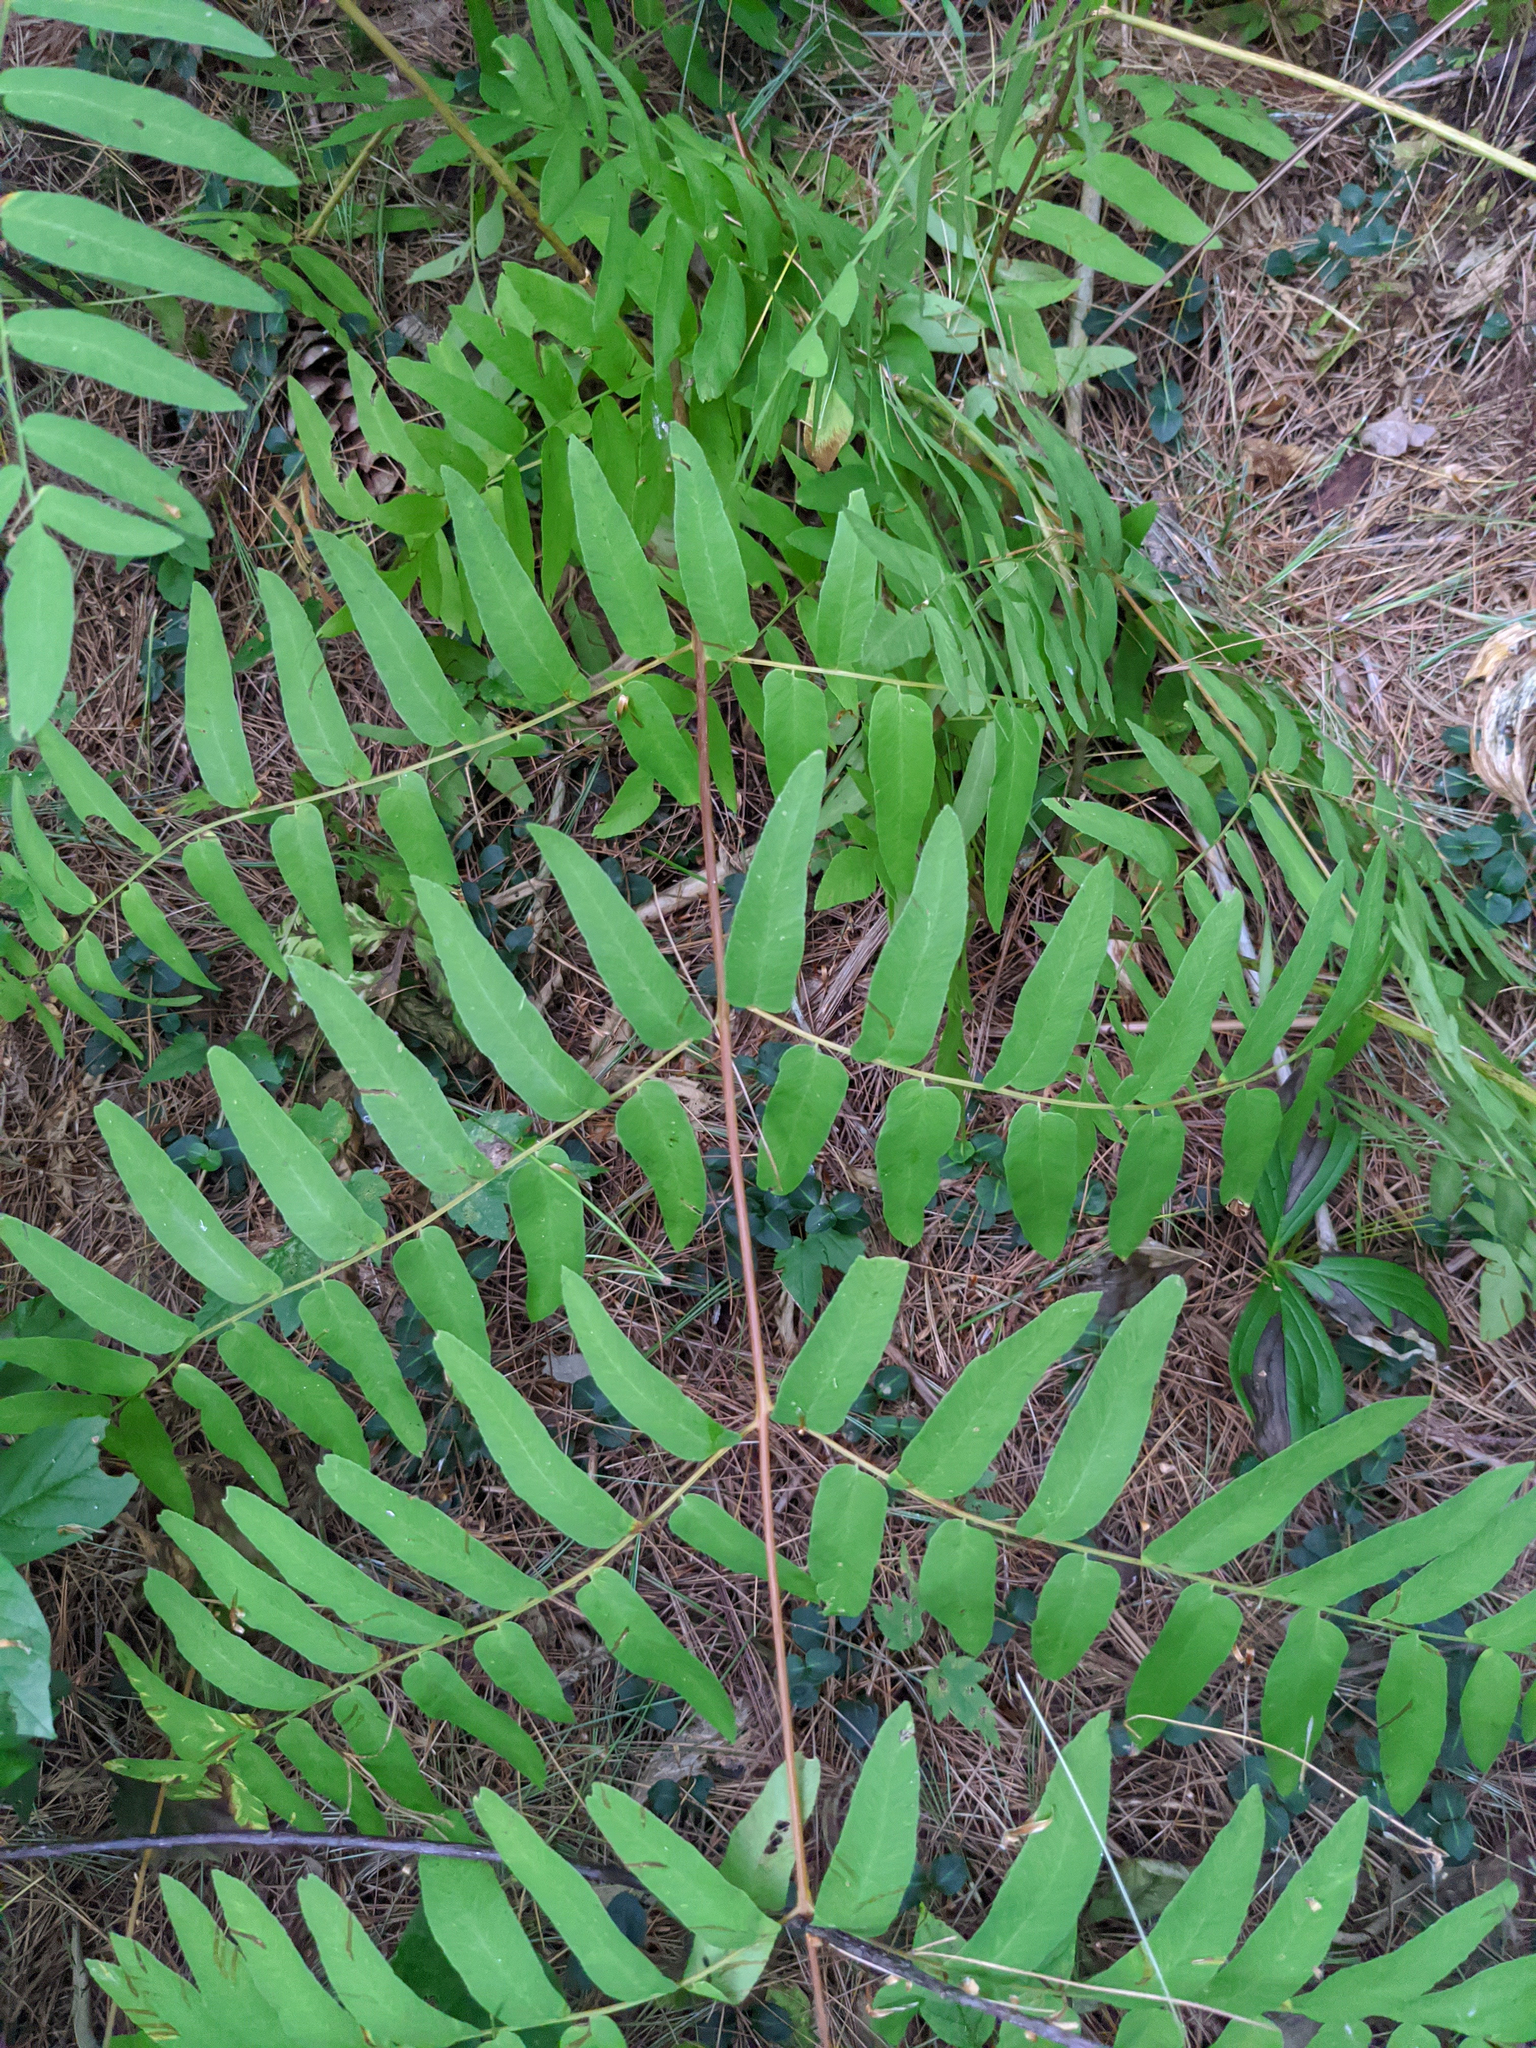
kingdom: Plantae
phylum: Tracheophyta
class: Polypodiopsida
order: Osmundales
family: Osmundaceae
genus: Osmunda
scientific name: Osmunda spectabilis
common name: American royal fern
